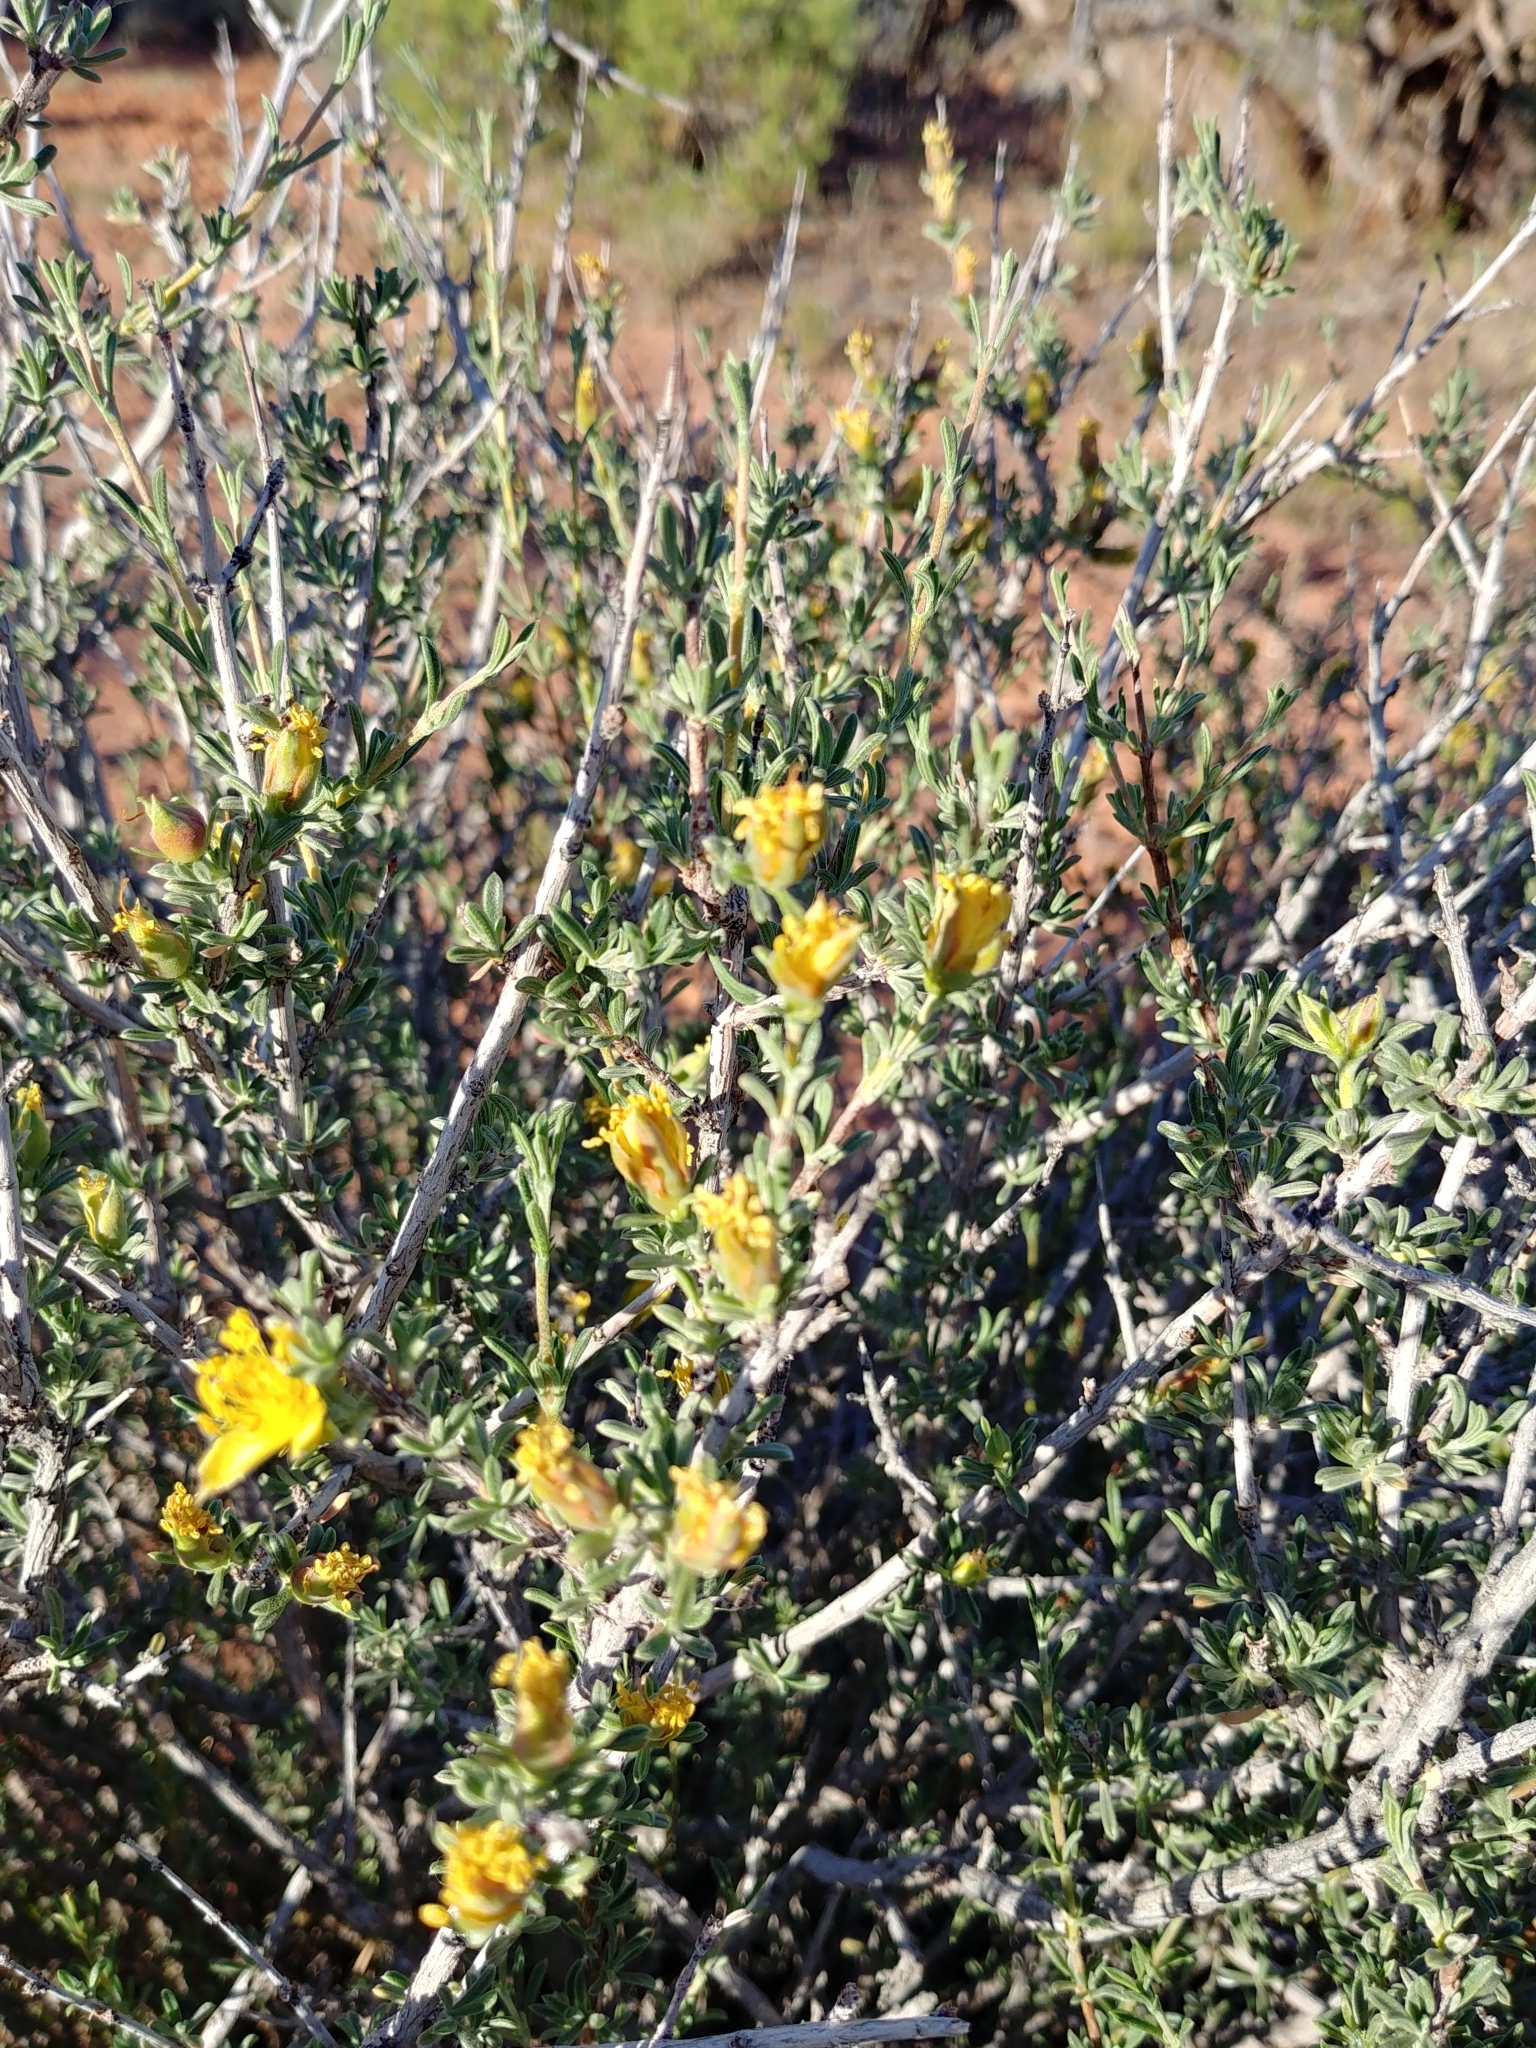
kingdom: Plantae
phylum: Tracheophyta
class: Magnoliopsida
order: Rosales
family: Rosaceae
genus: Coleogyne
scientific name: Coleogyne ramosissima
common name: Blackbrush
